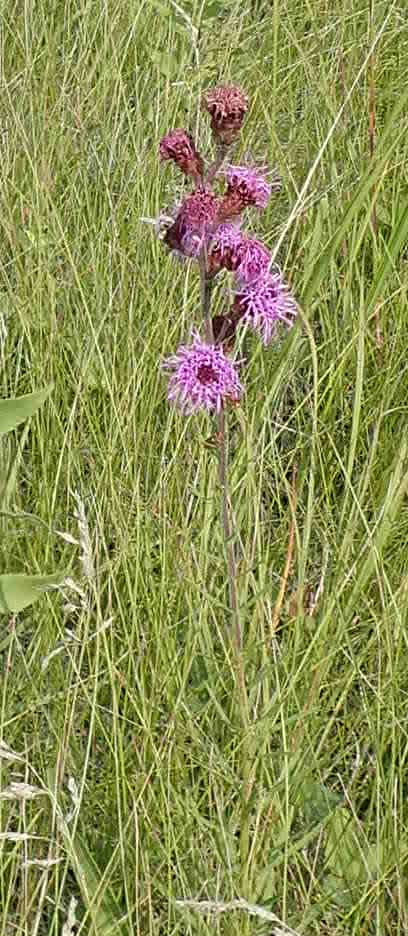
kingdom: Plantae
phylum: Tracheophyta
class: Magnoliopsida
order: Asterales
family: Asteraceae
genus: Liatris
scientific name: Liatris ligulistylis
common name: Northern plains gayfeather
